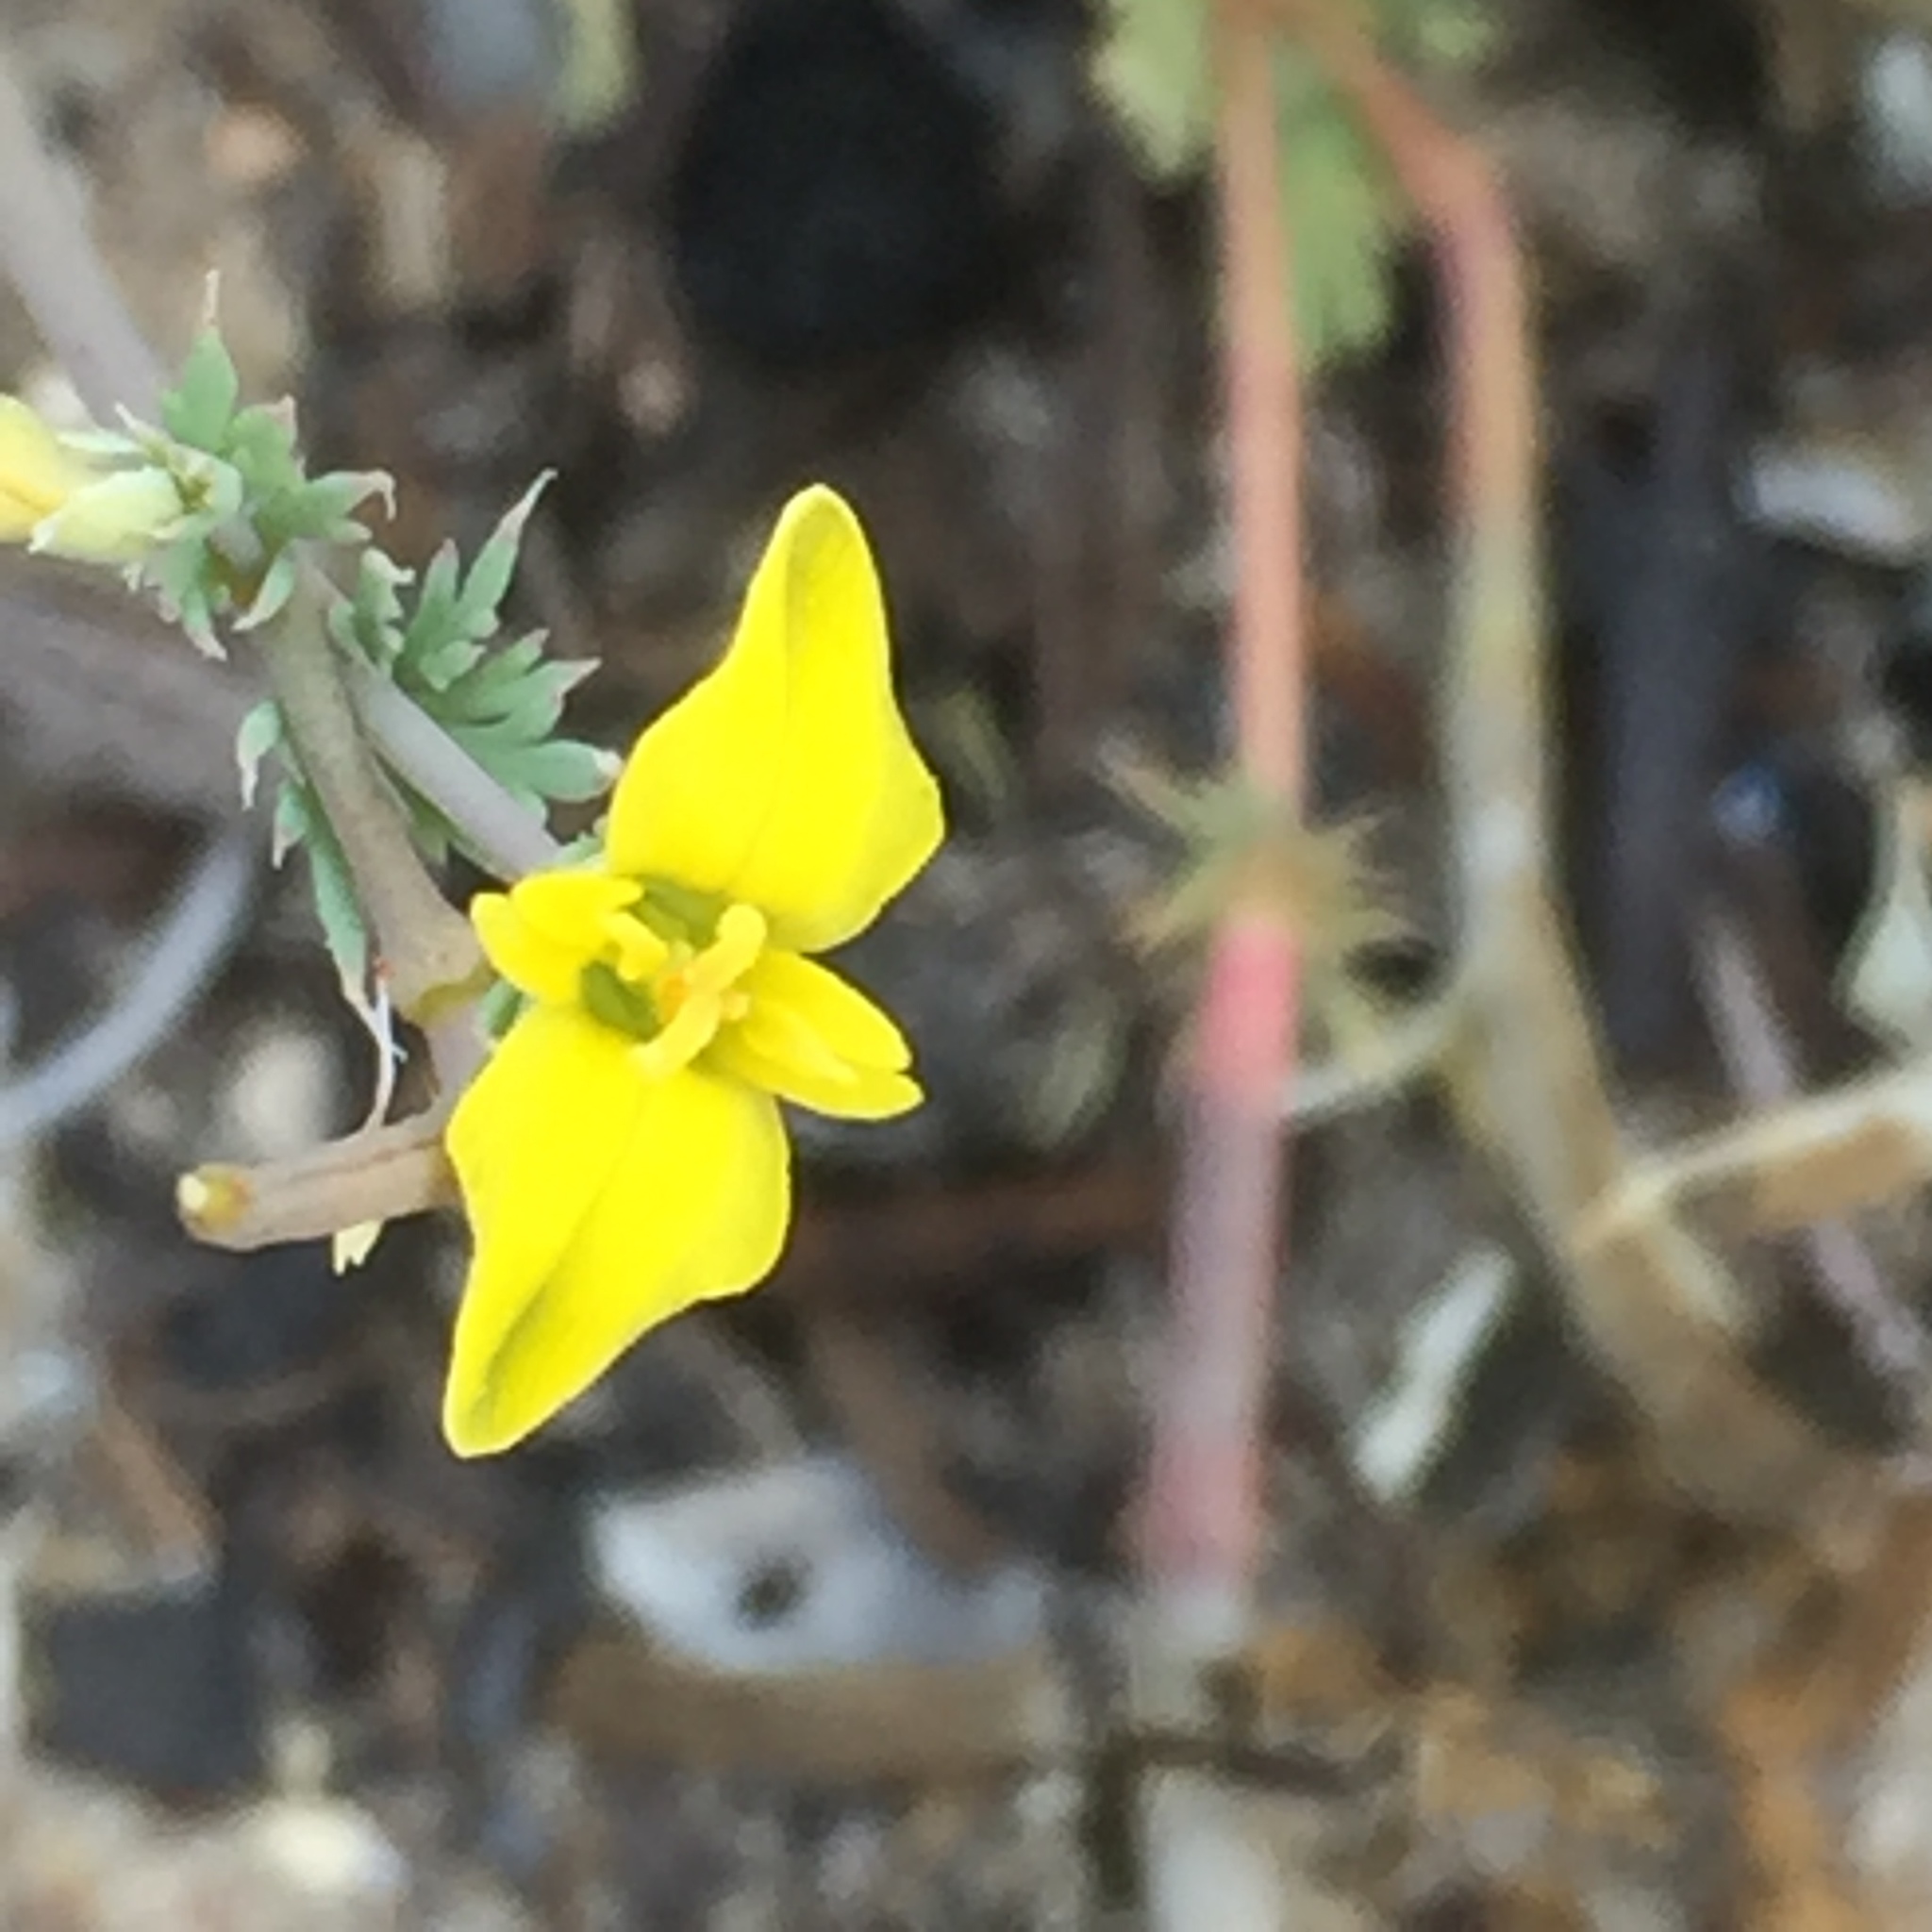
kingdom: Plantae
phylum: Tracheophyta
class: Magnoliopsida
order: Ranunculales
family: Papaveraceae
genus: Hypecoum
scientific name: Hypecoum littorale
